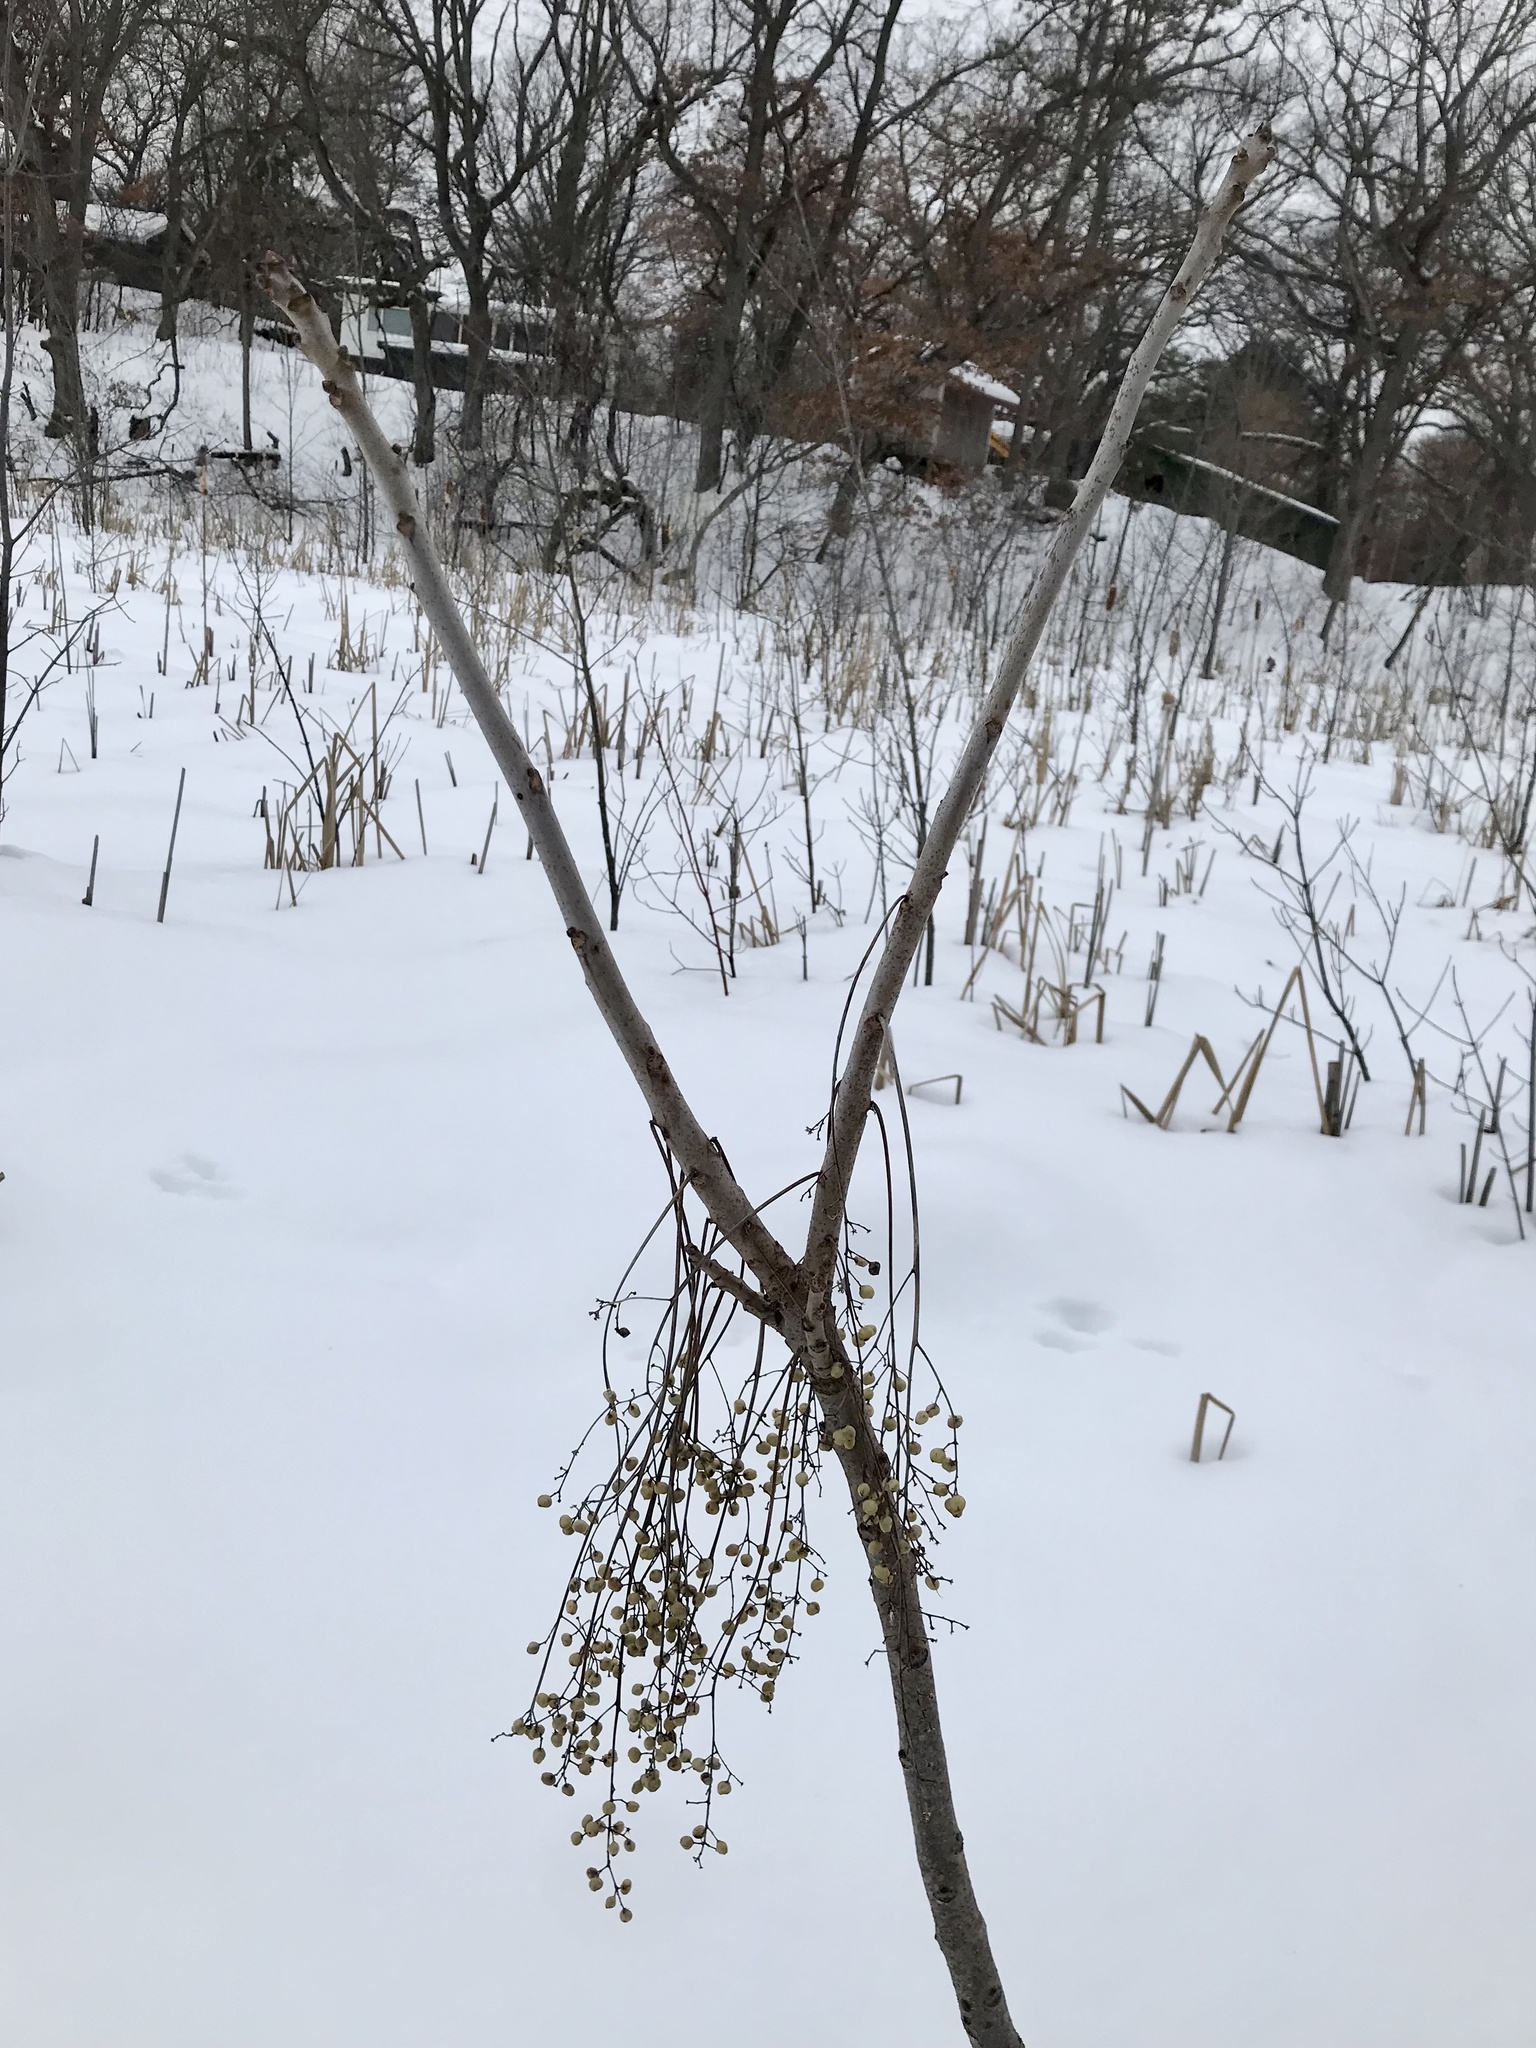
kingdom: Plantae
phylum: Tracheophyta
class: Magnoliopsida
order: Sapindales
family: Anacardiaceae
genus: Toxicodendron
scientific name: Toxicodendron vernix
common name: Poison sumac
